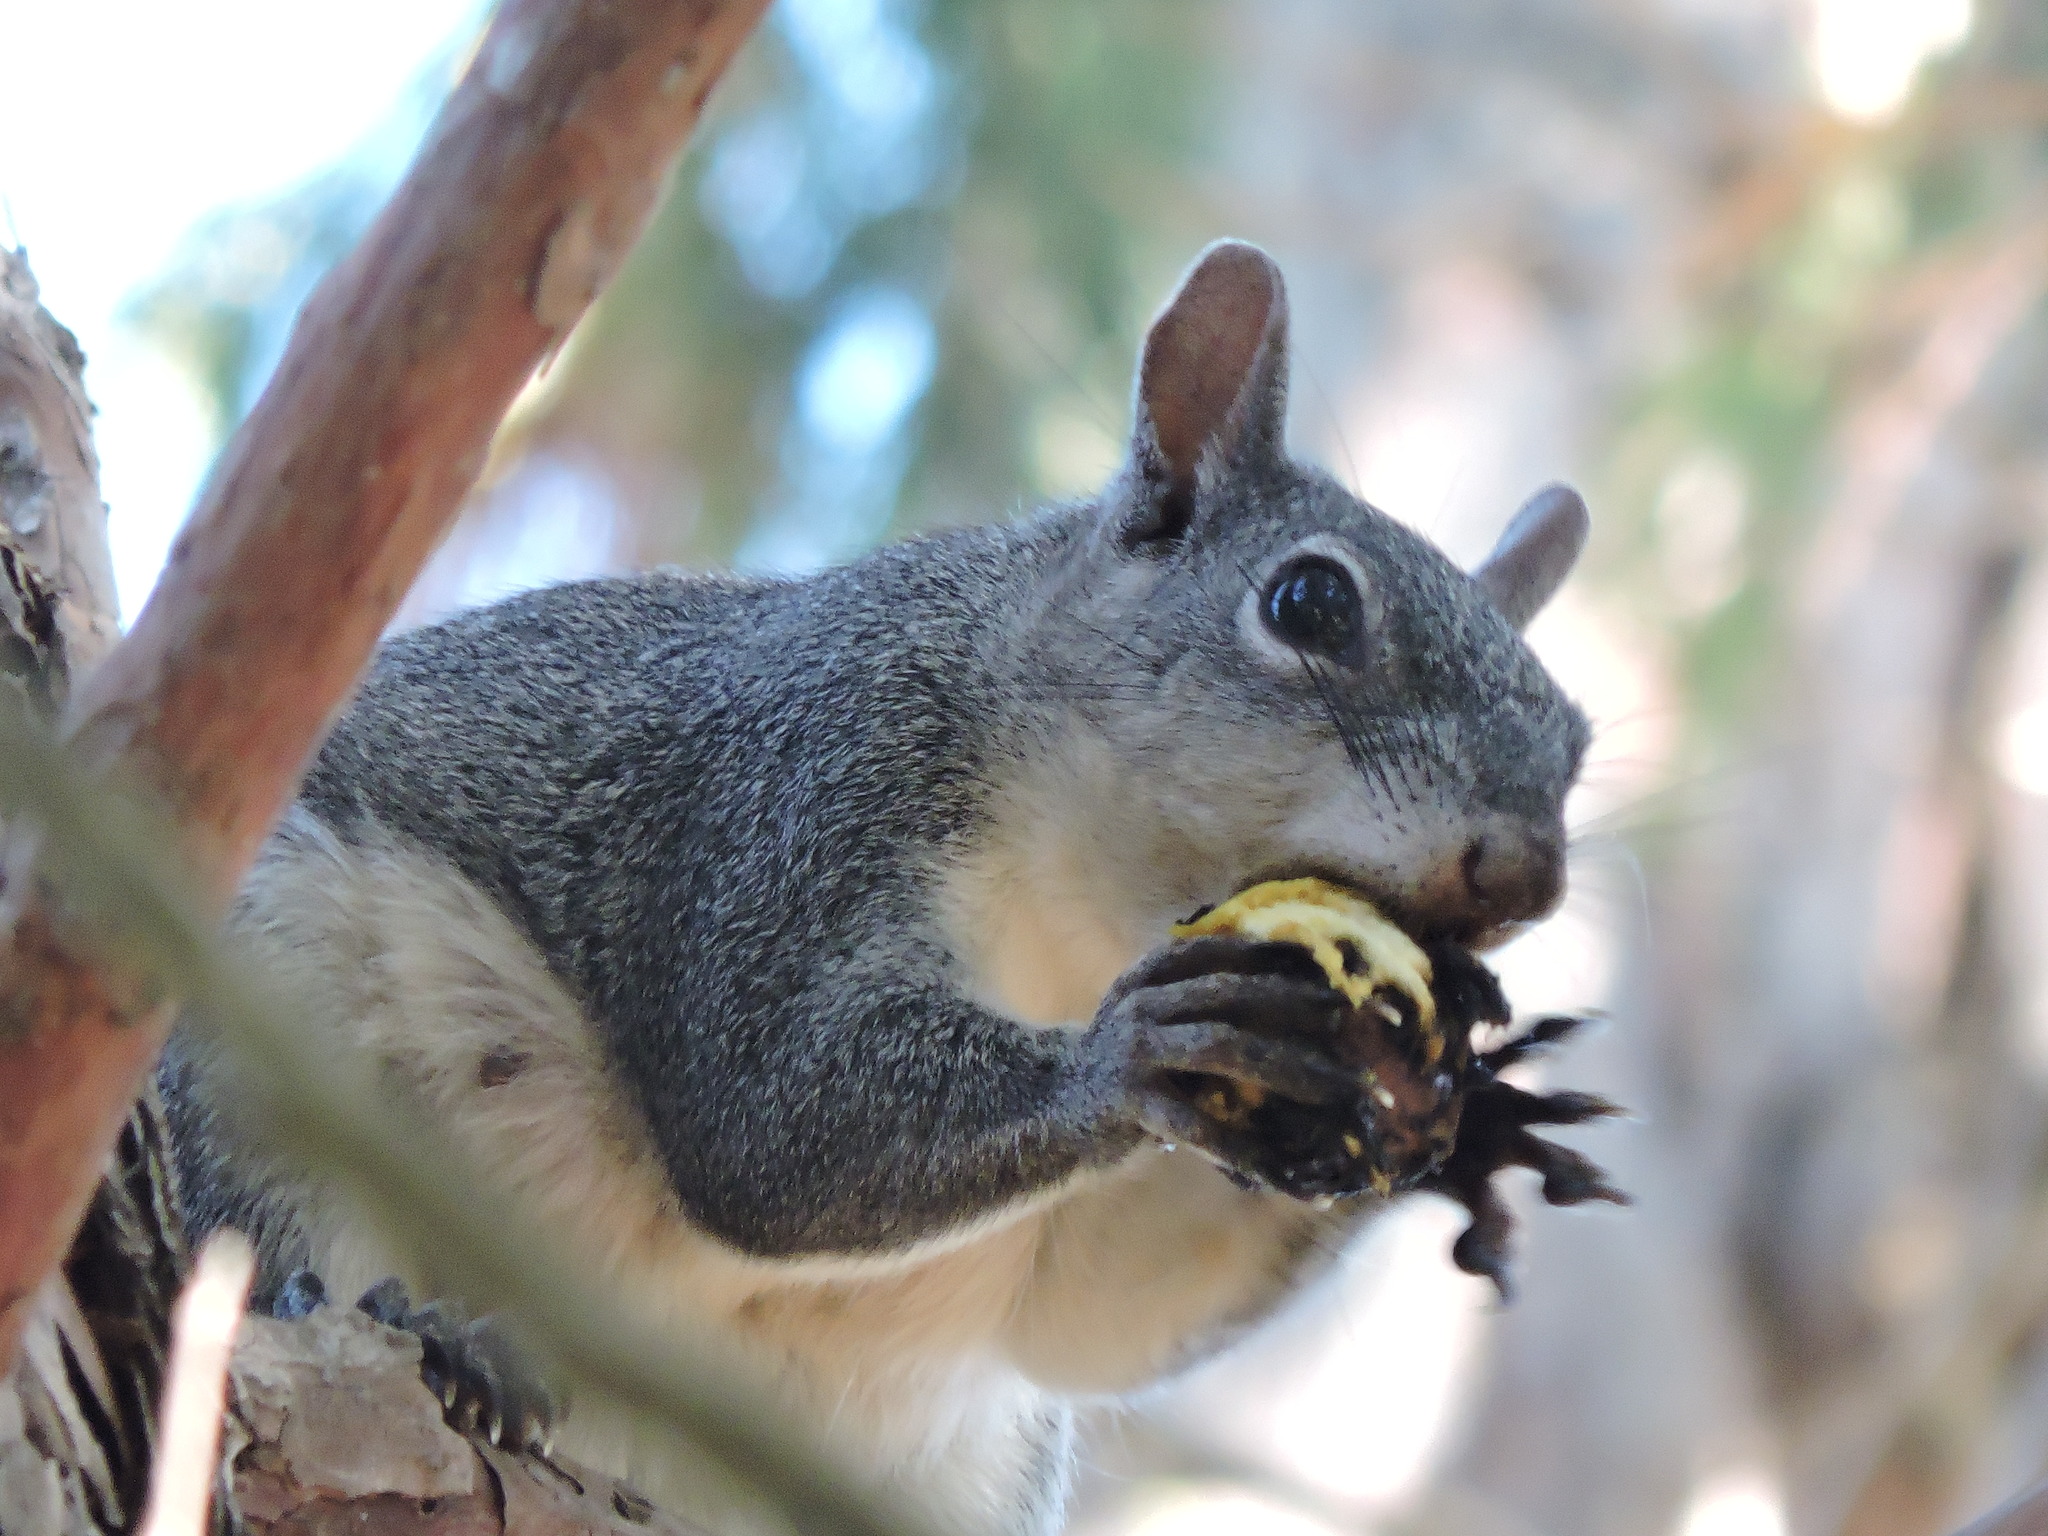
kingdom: Animalia
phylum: Chordata
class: Mammalia
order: Rodentia
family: Sciuridae
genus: Sciurus
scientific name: Sciurus griseus
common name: Western gray squirrel
